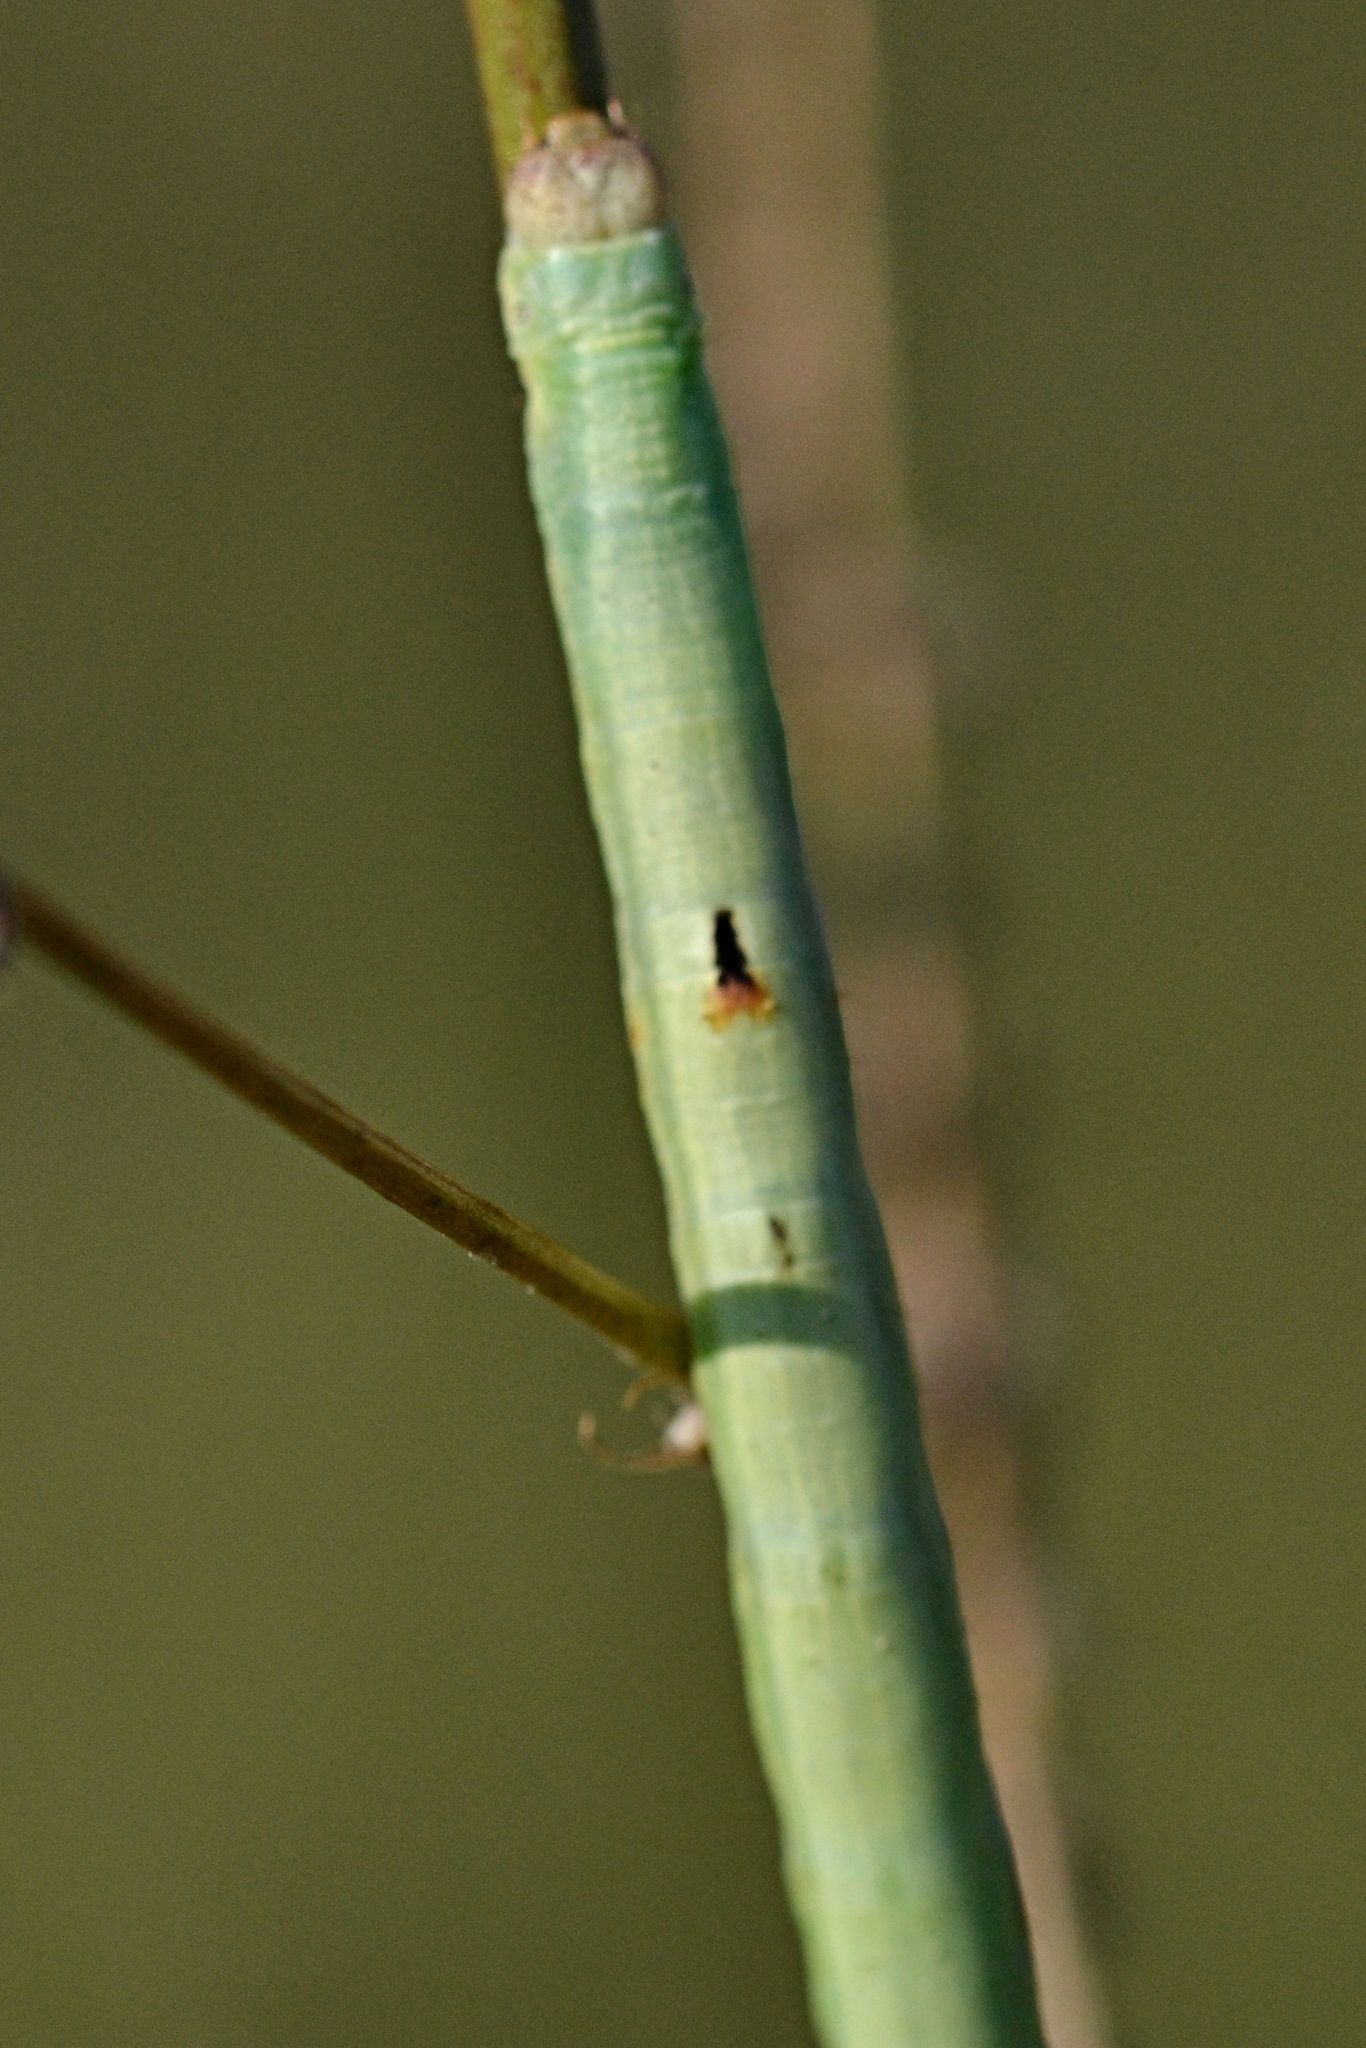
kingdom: Animalia
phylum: Arthropoda
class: Insecta
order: Lepidoptera
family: Geometridae
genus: Ascotis
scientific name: Ascotis selenaria
